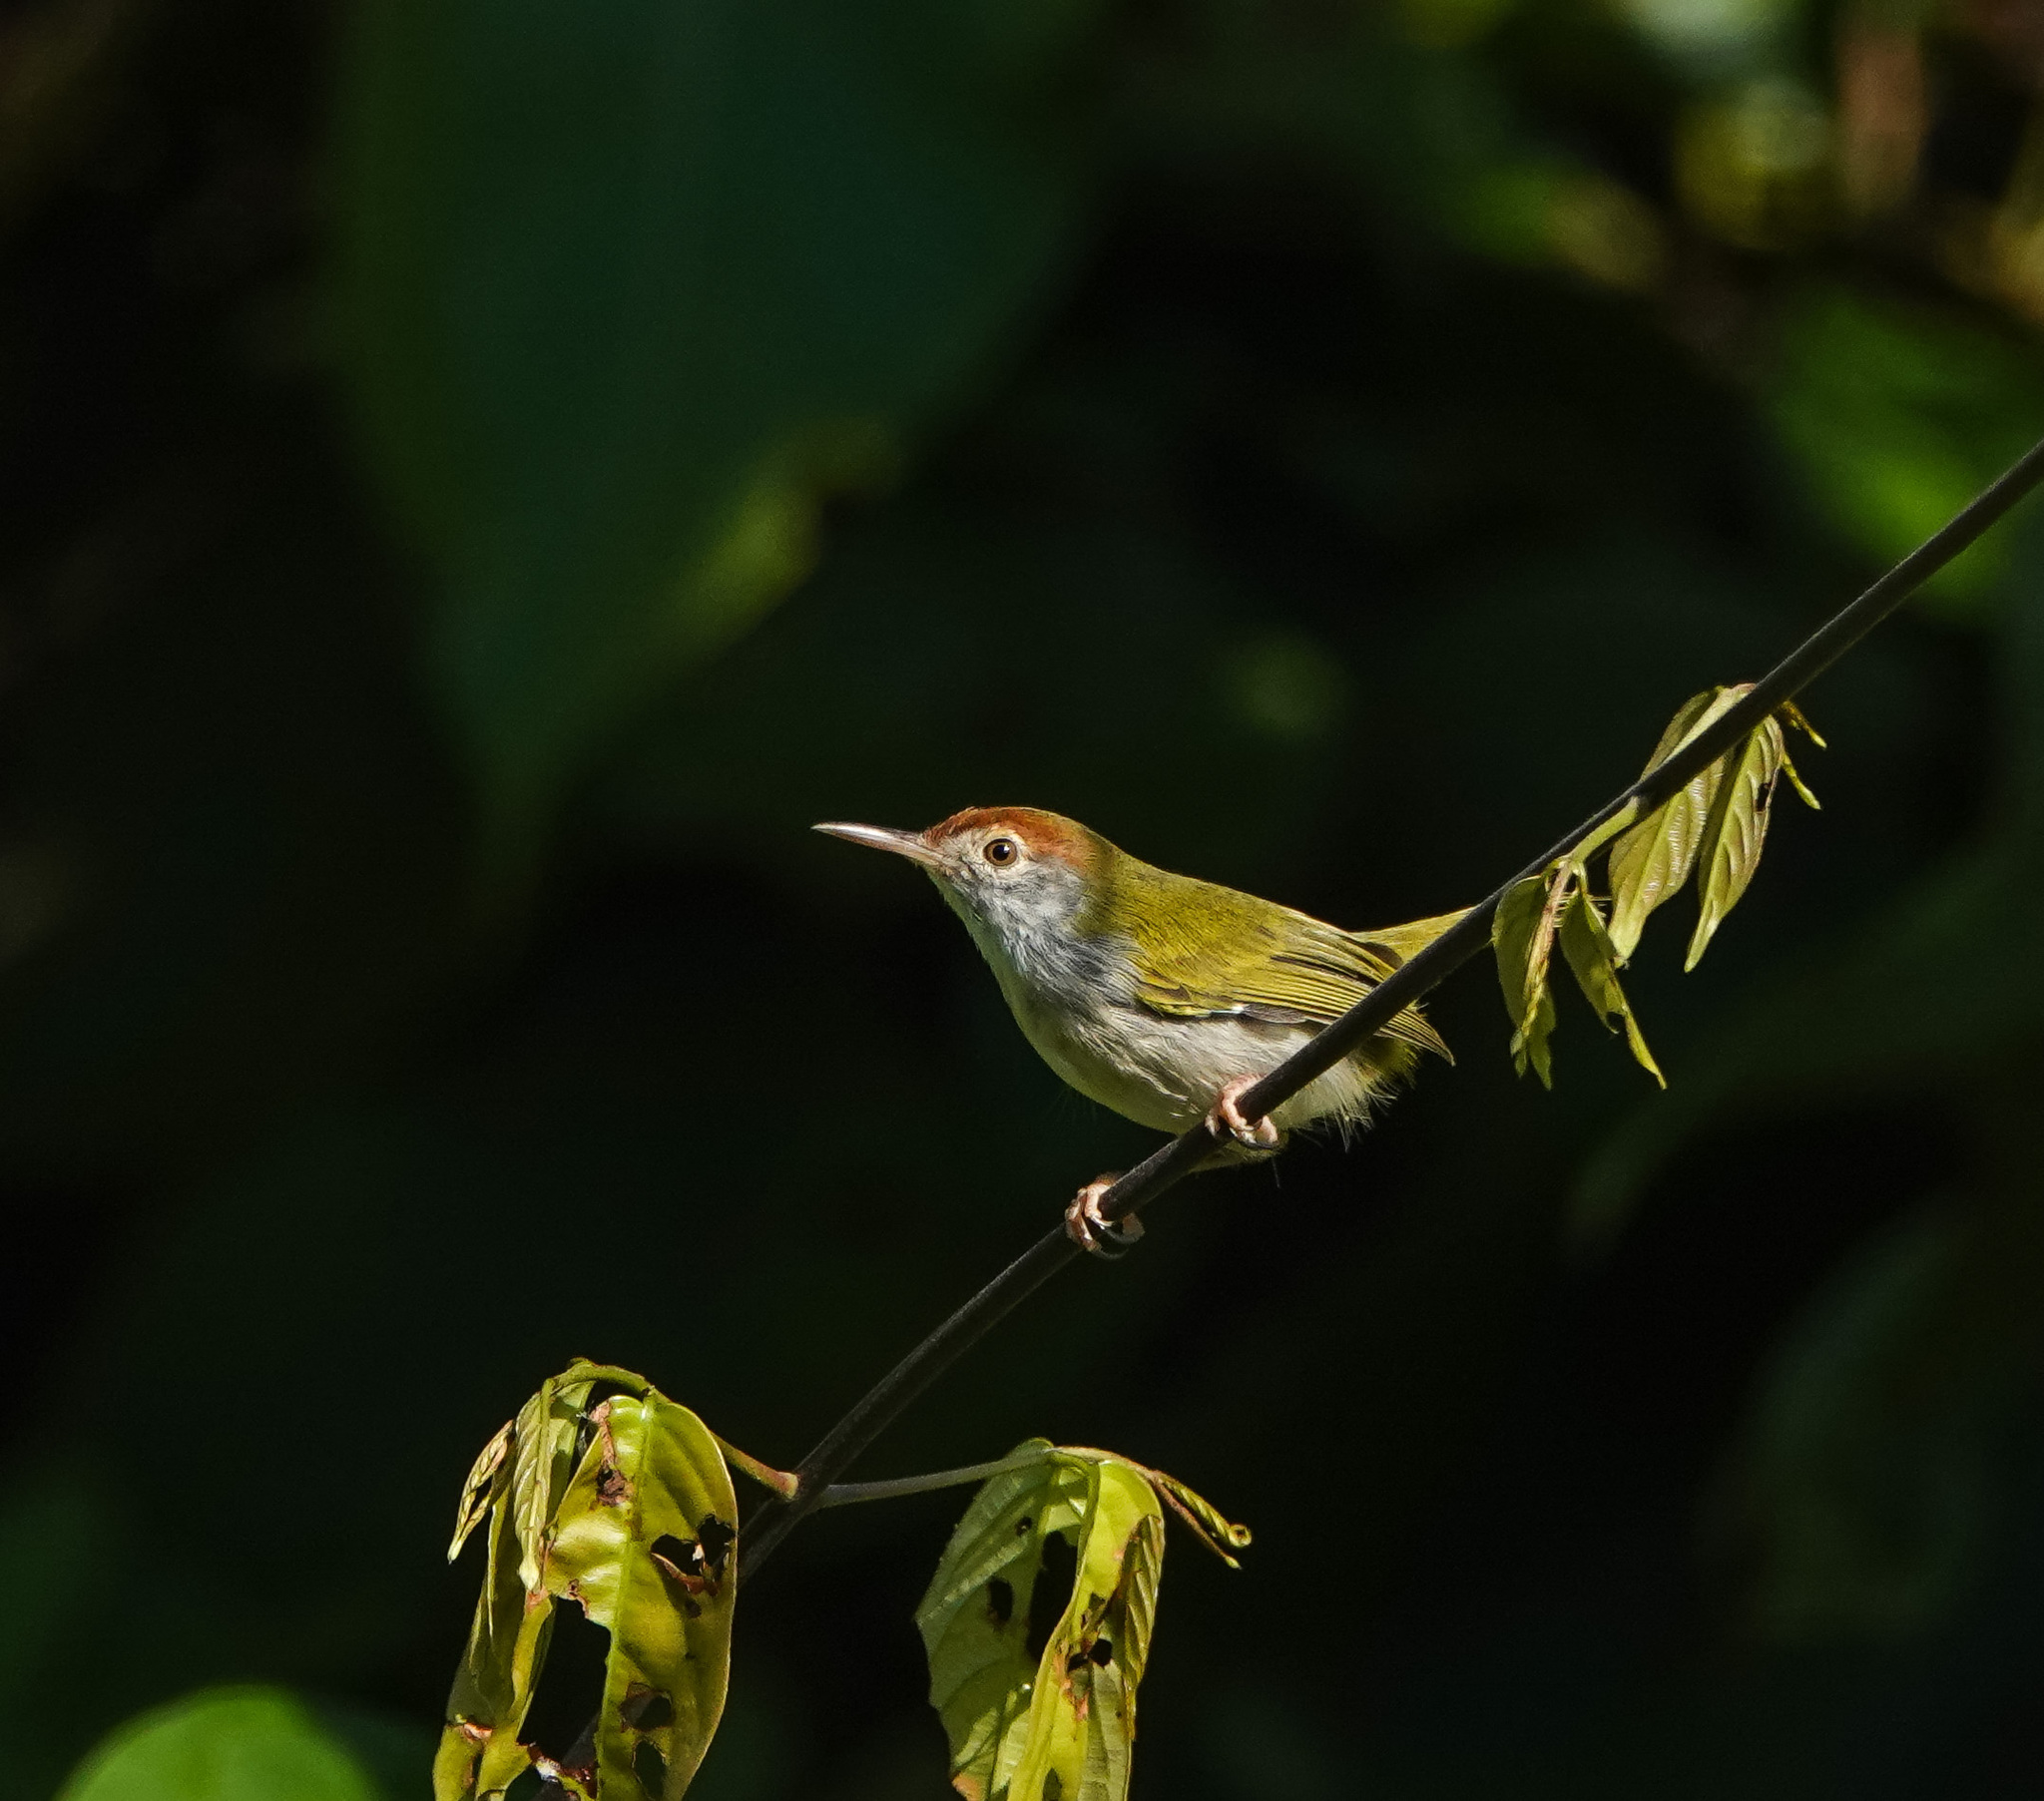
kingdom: Animalia
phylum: Chordata
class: Aves
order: Passeriformes
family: Cisticolidae
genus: Orthotomus
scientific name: Orthotomus atrogularis
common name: Dark-necked tailorbird
